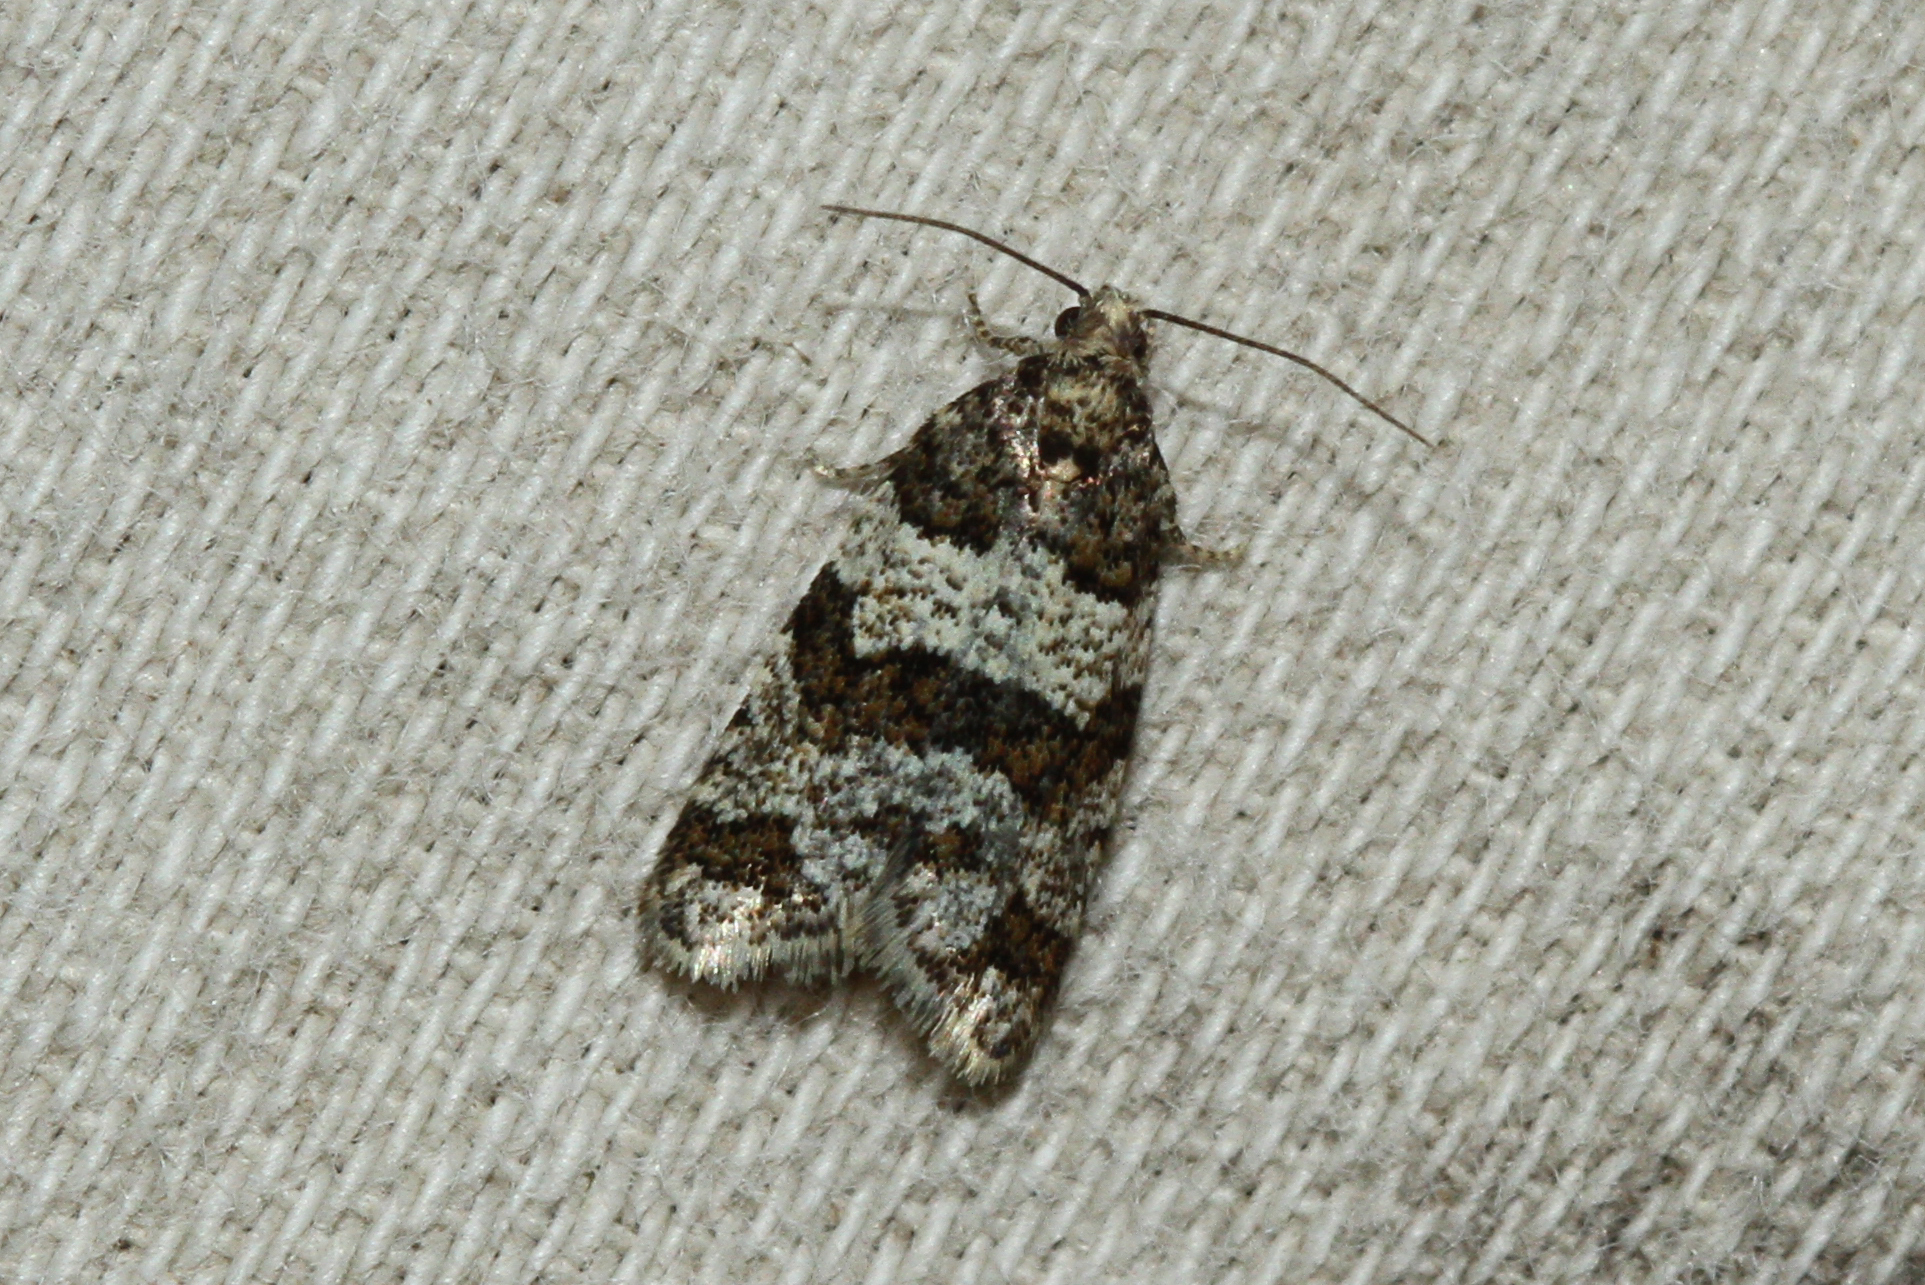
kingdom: Animalia
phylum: Arthropoda
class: Insecta
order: Lepidoptera
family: Tortricidae
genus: Isotrias
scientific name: Isotrias rectifasciana
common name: Hedge shade
